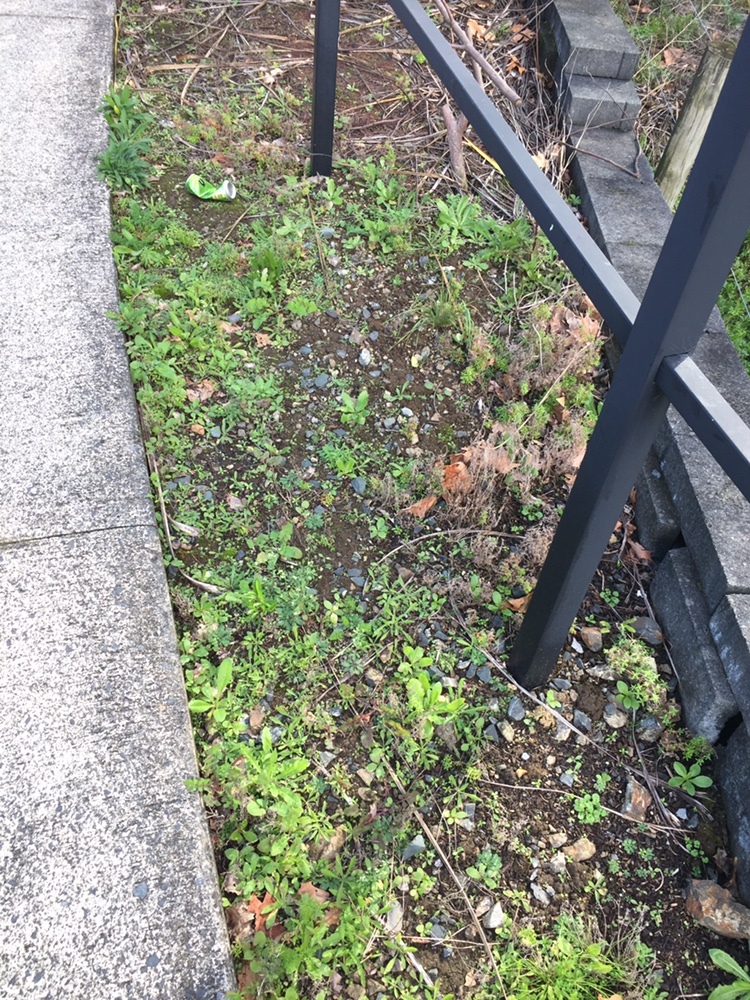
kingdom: Plantae
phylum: Tracheophyta
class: Magnoliopsida
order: Brassicales
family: Brassicaceae
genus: Arabidopsis
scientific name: Arabidopsis thaliana
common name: Thale cress
